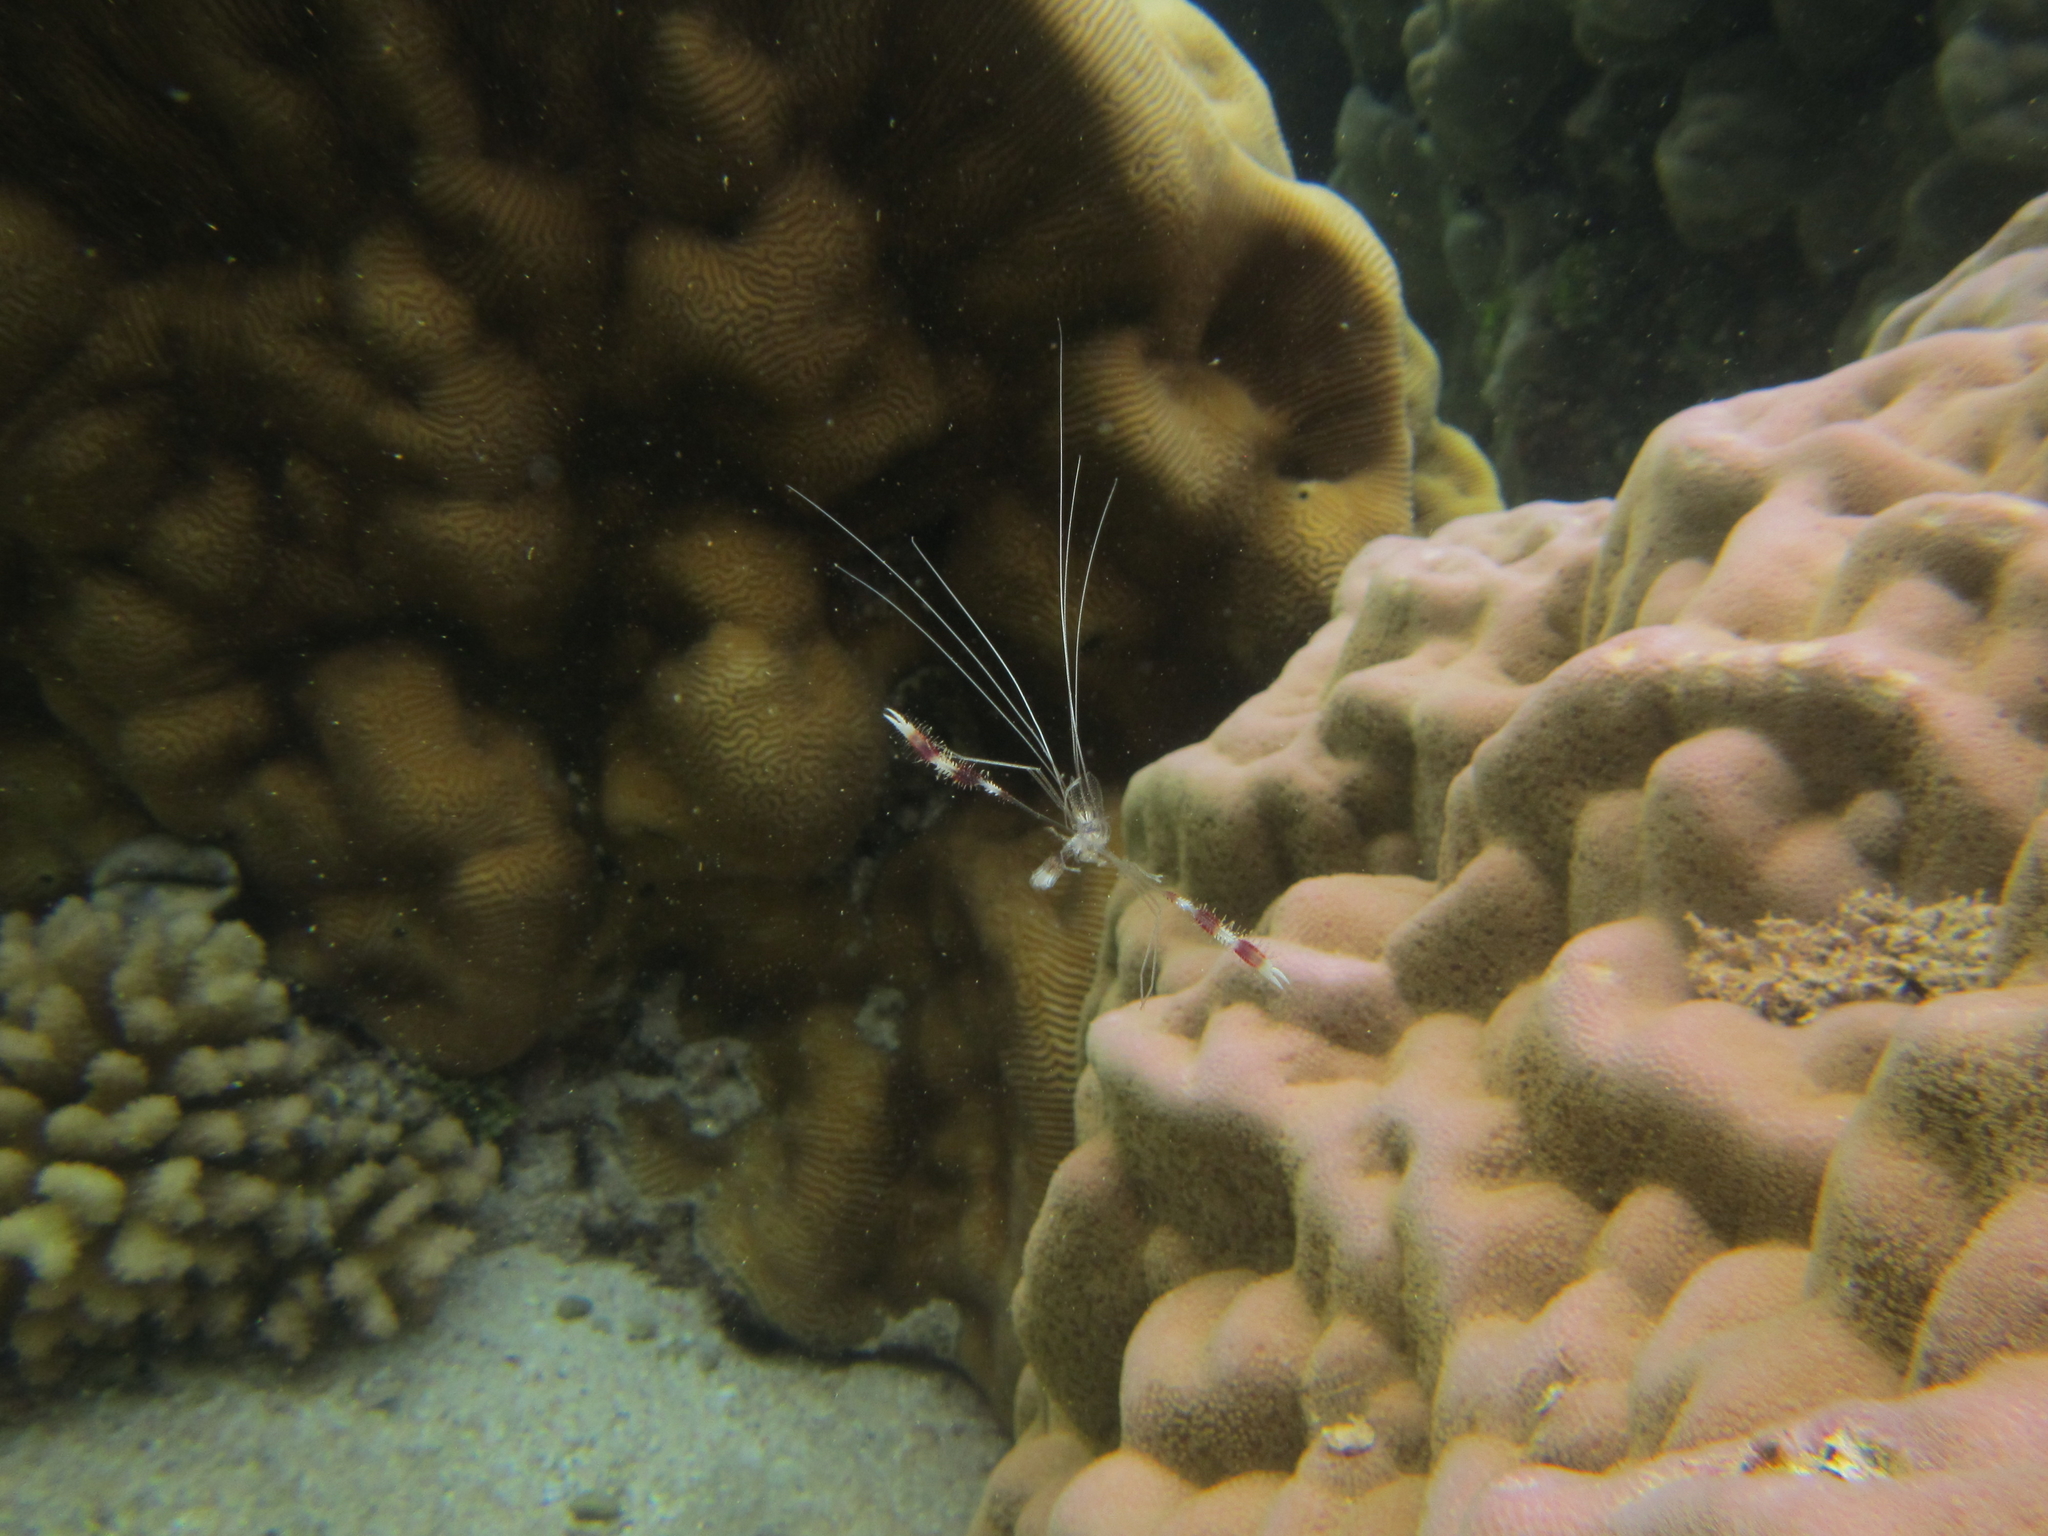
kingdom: Animalia
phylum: Arthropoda
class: Malacostraca
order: Decapoda
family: Stenopodidae
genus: Stenopus
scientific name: Stenopus hispidus
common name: Banded coral shrimp
